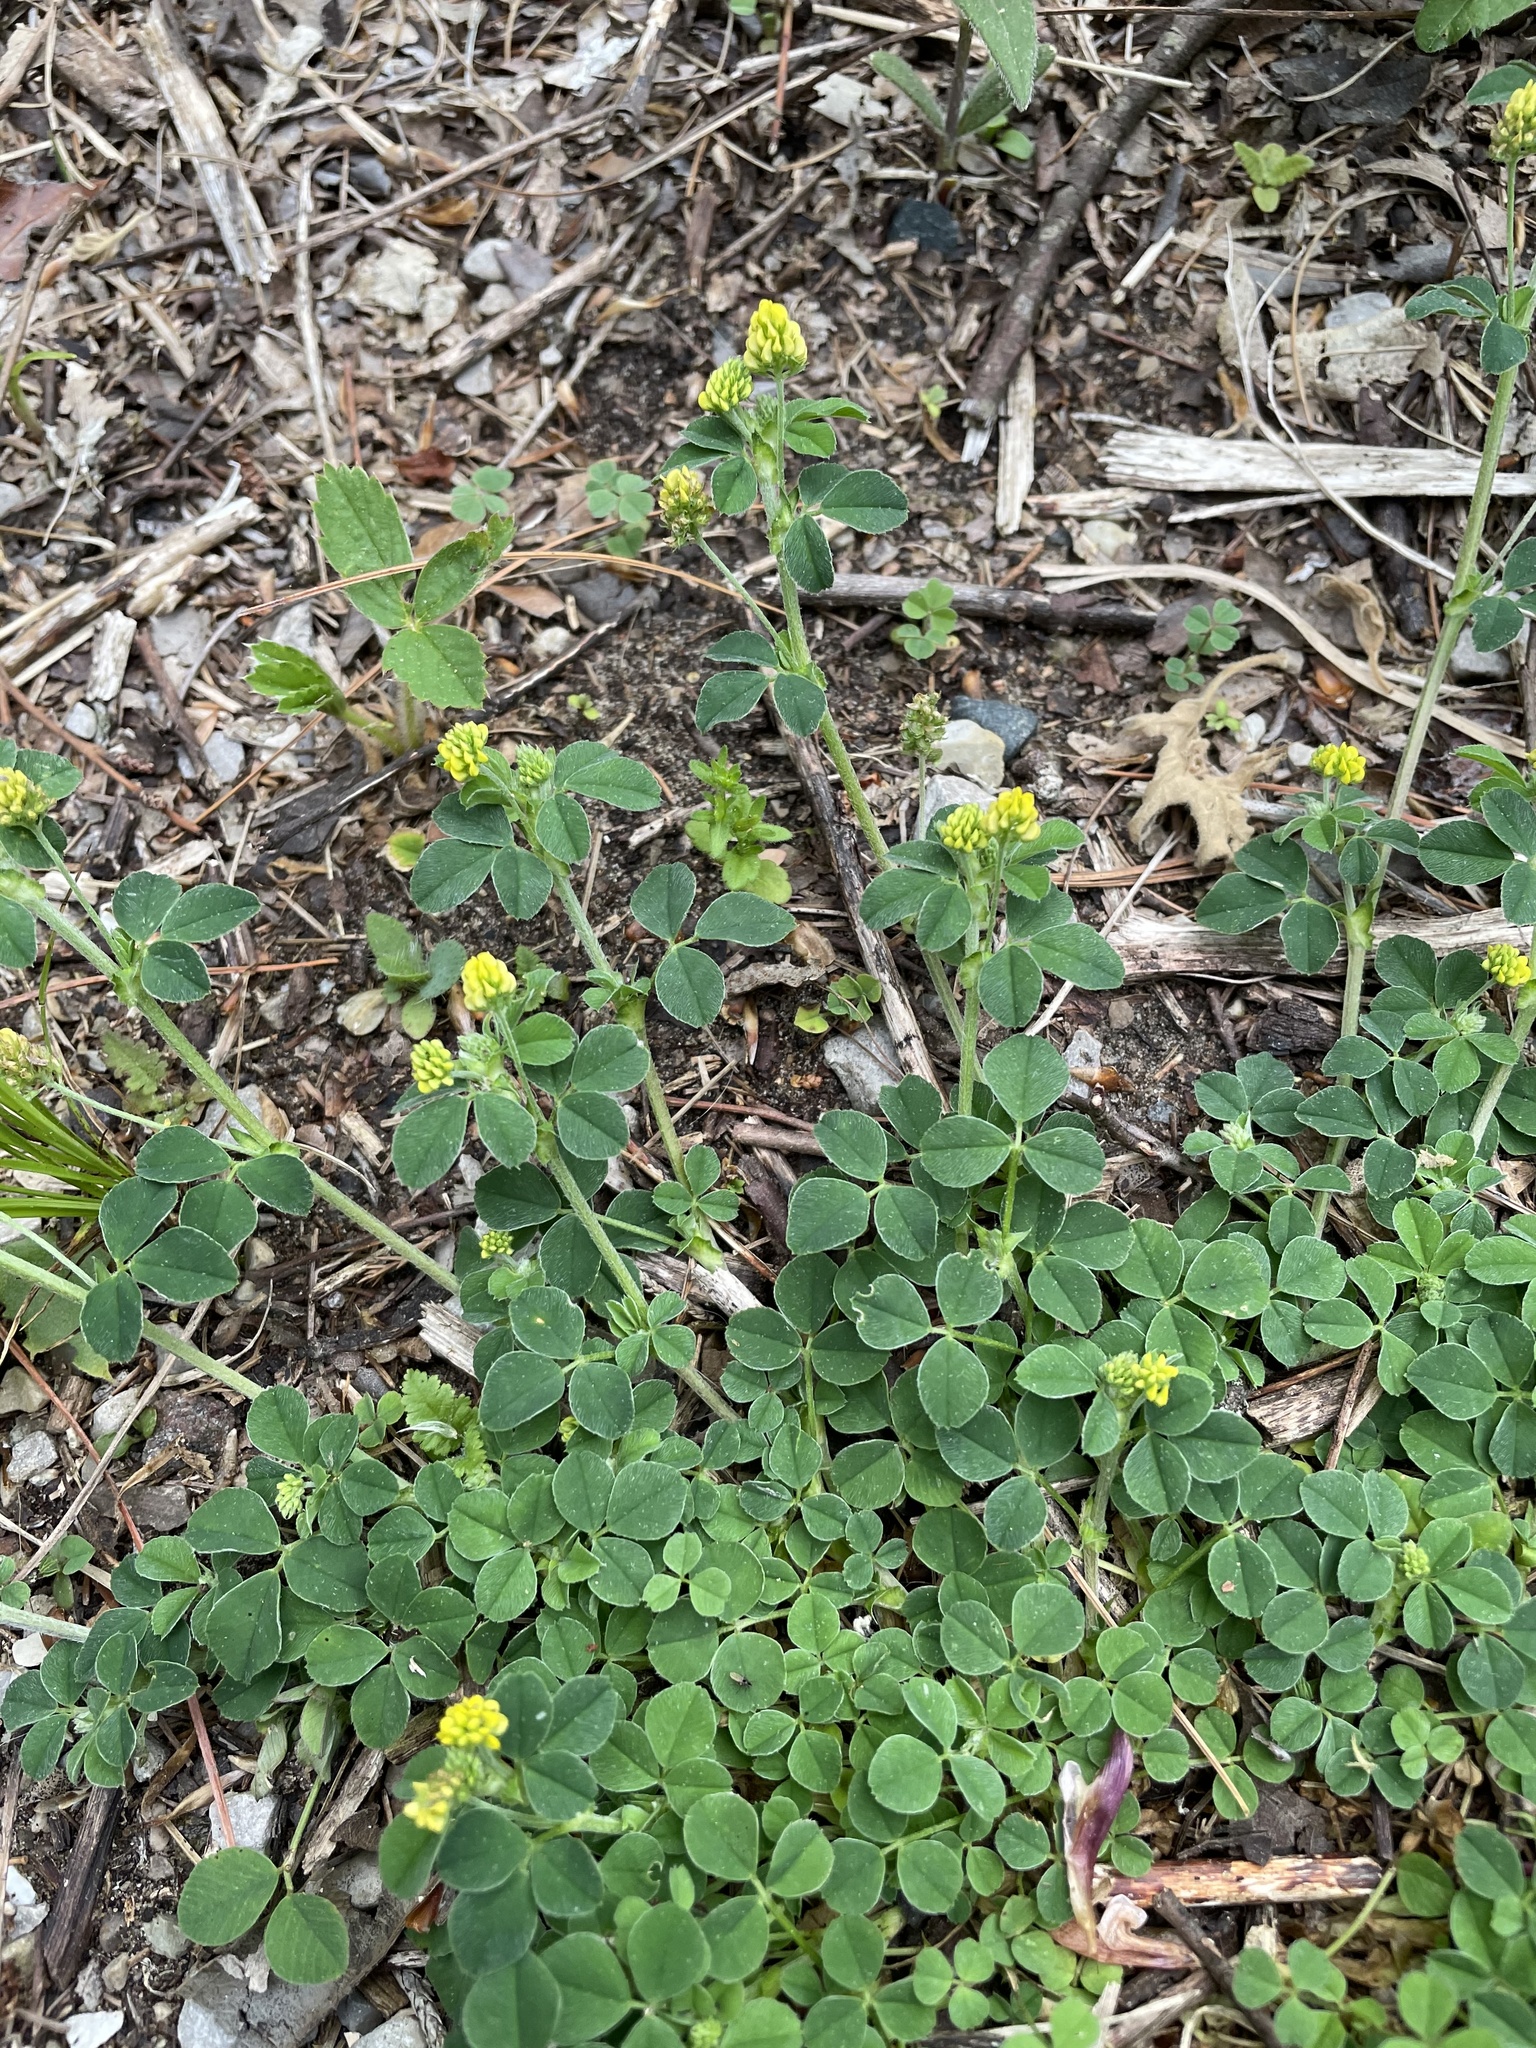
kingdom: Plantae
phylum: Tracheophyta
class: Magnoliopsida
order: Fabales
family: Fabaceae
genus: Medicago
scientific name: Medicago lupulina
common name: Black medick
